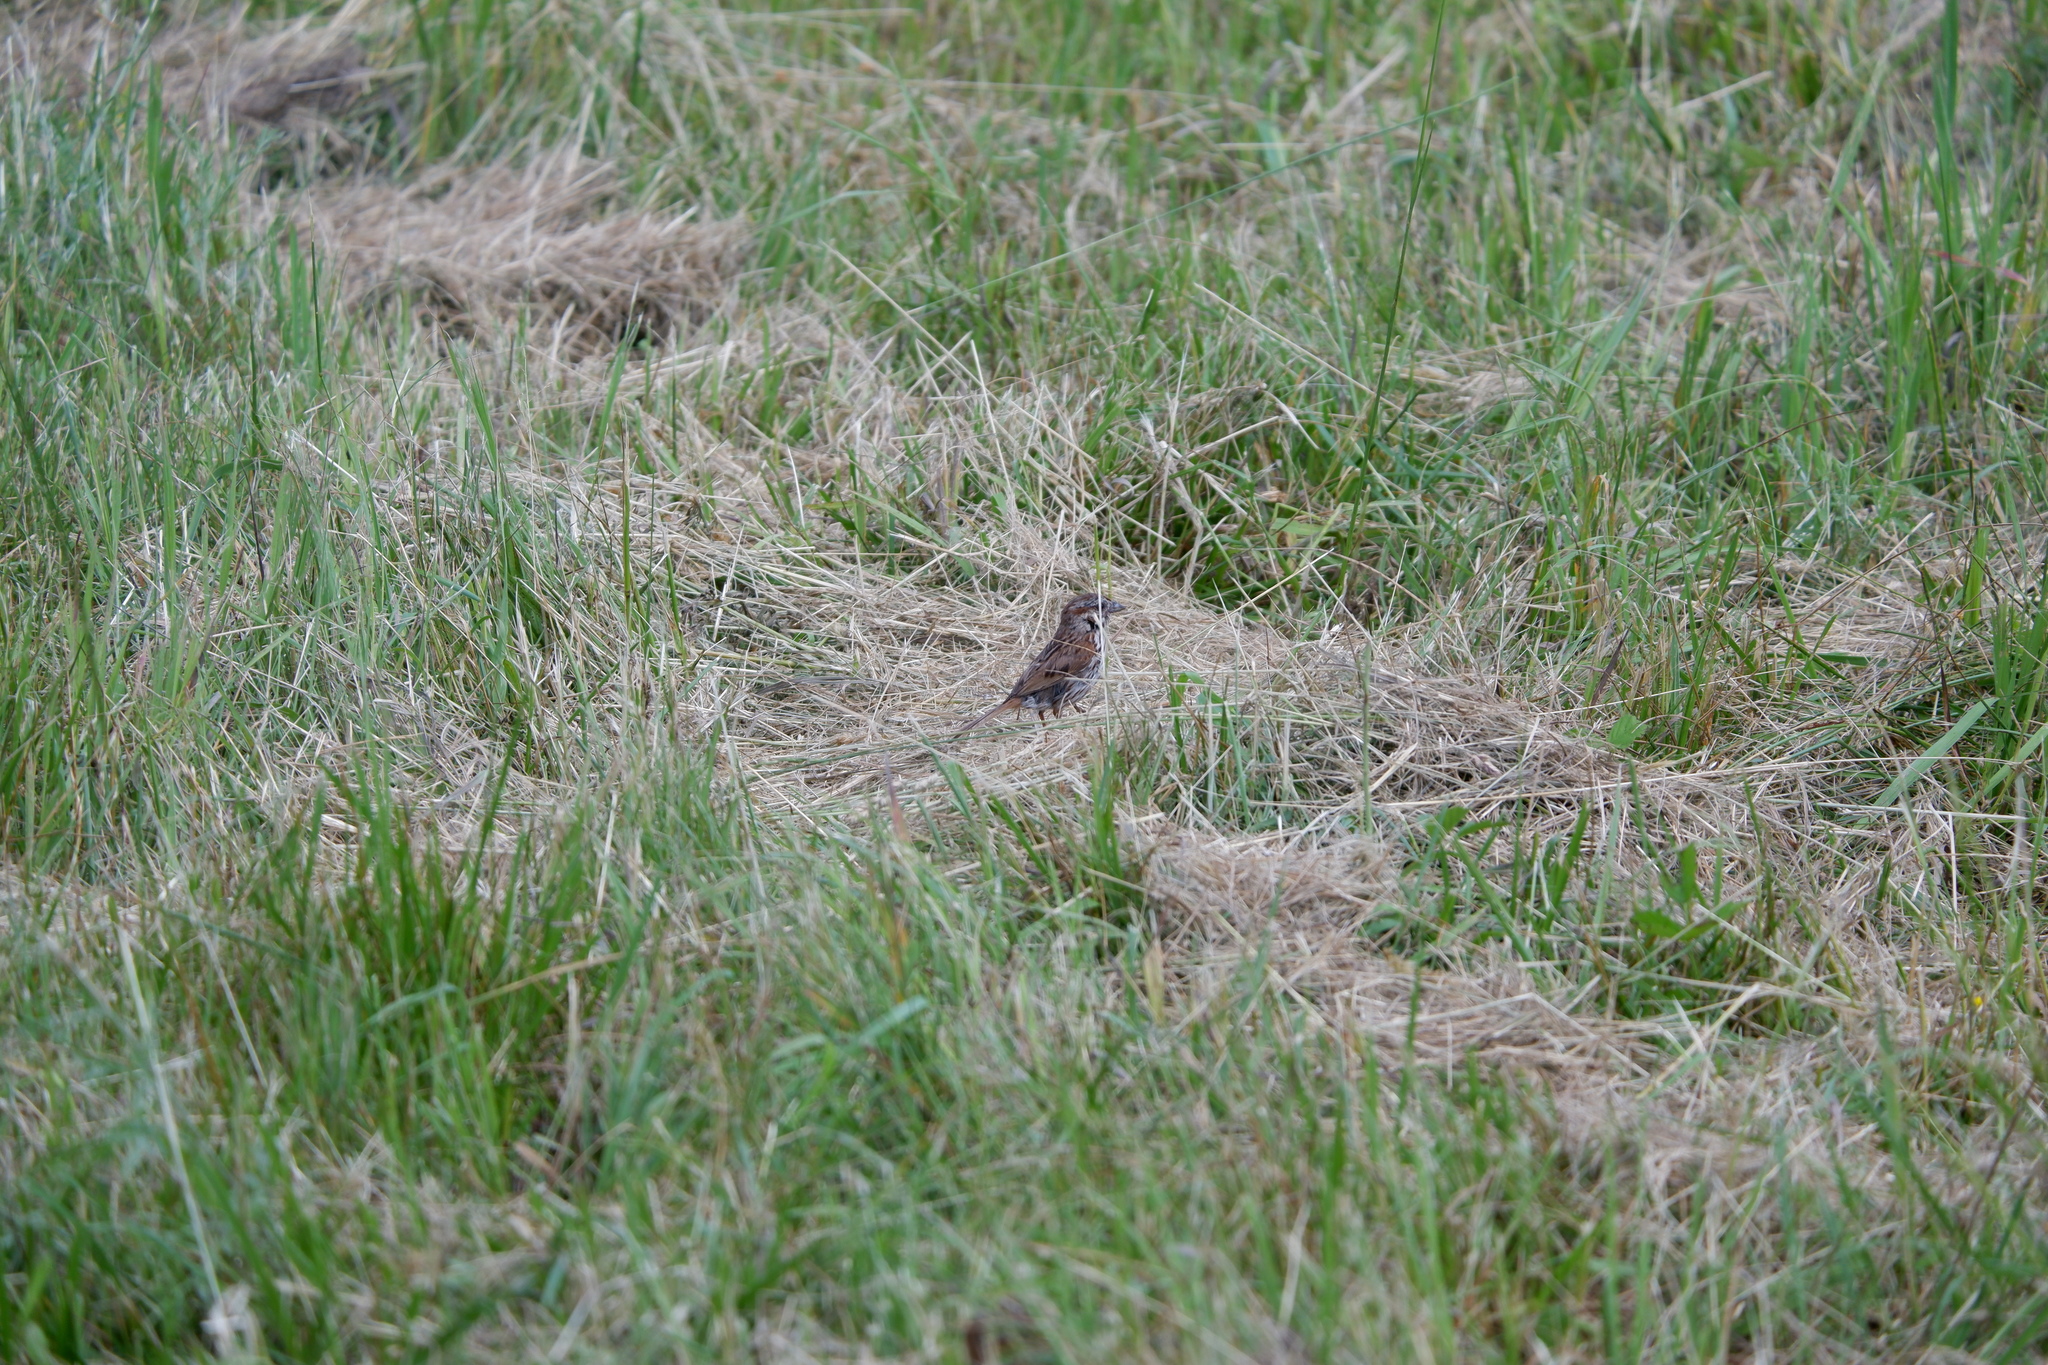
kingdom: Animalia
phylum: Chordata
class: Aves
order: Passeriformes
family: Passerellidae
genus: Melospiza
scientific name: Melospiza melodia
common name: Song sparrow
